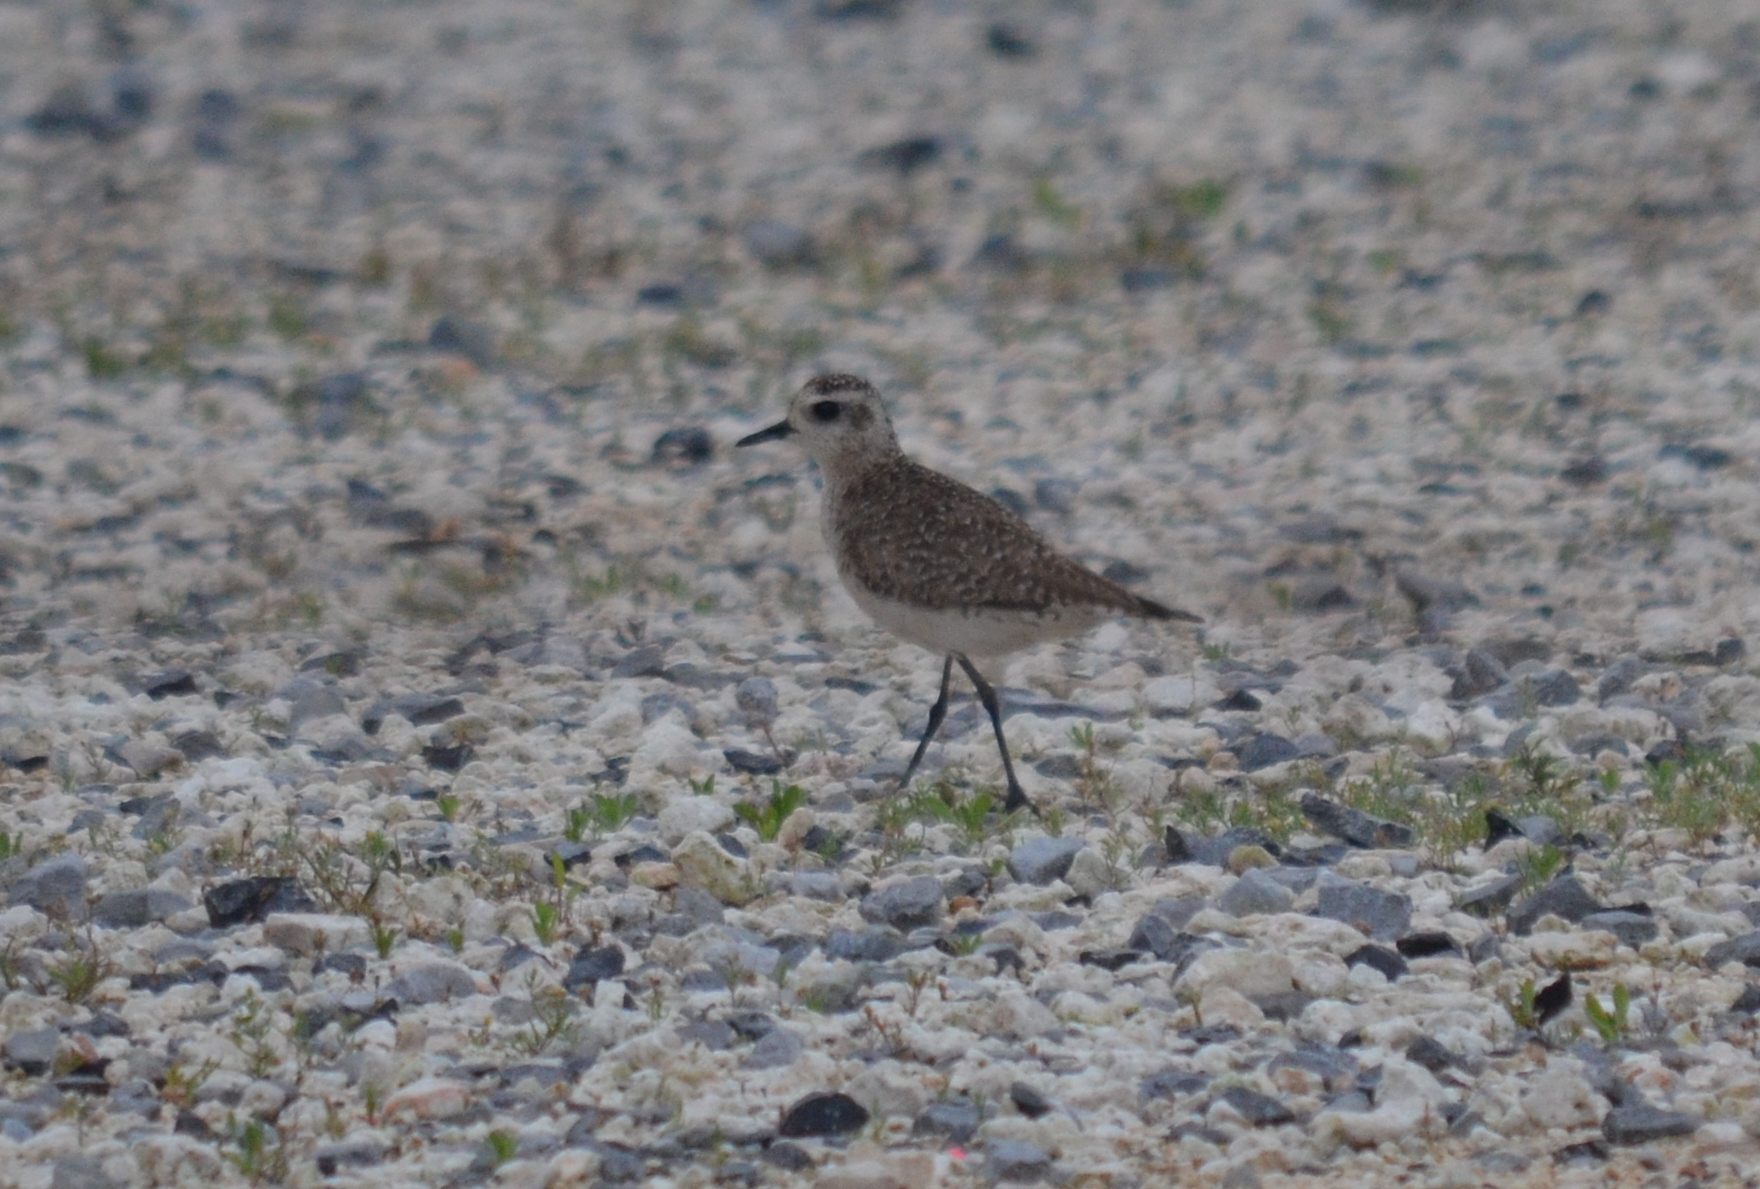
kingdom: Animalia
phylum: Chordata
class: Aves
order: Charadriiformes
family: Charadriidae
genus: Pluvialis
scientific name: Pluvialis dominica
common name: American golden plover
